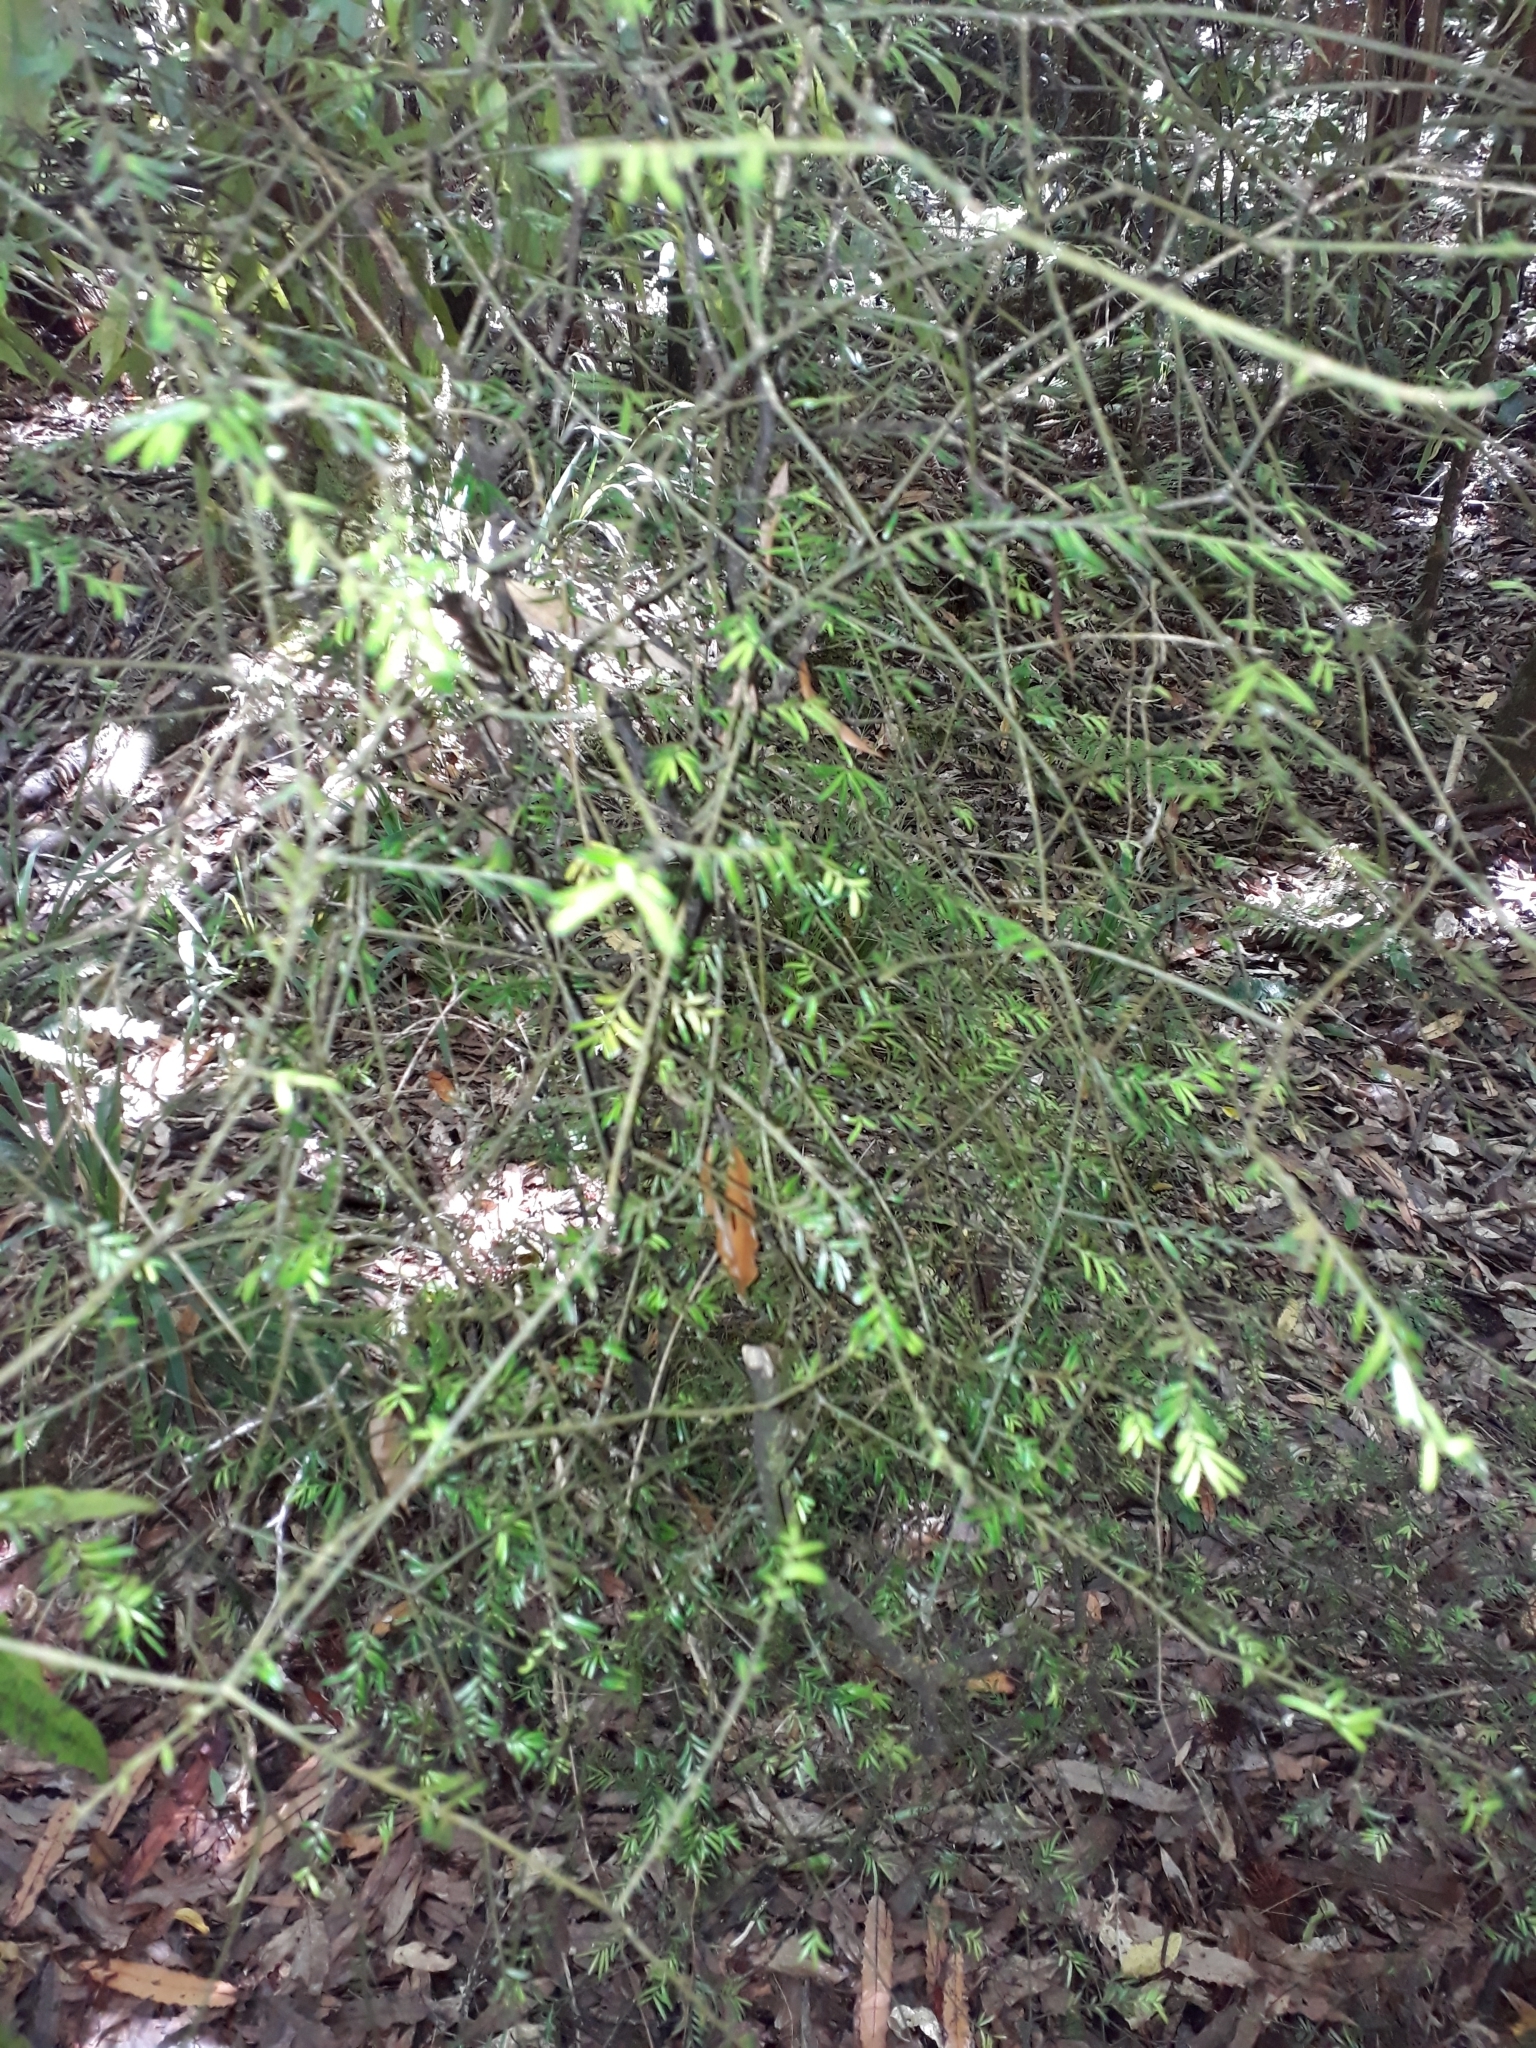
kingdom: Plantae
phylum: Tracheophyta
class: Pinopsida
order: Pinales
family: Podocarpaceae
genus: Prumnopitys
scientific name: Prumnopitys taxifolia
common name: Matai
